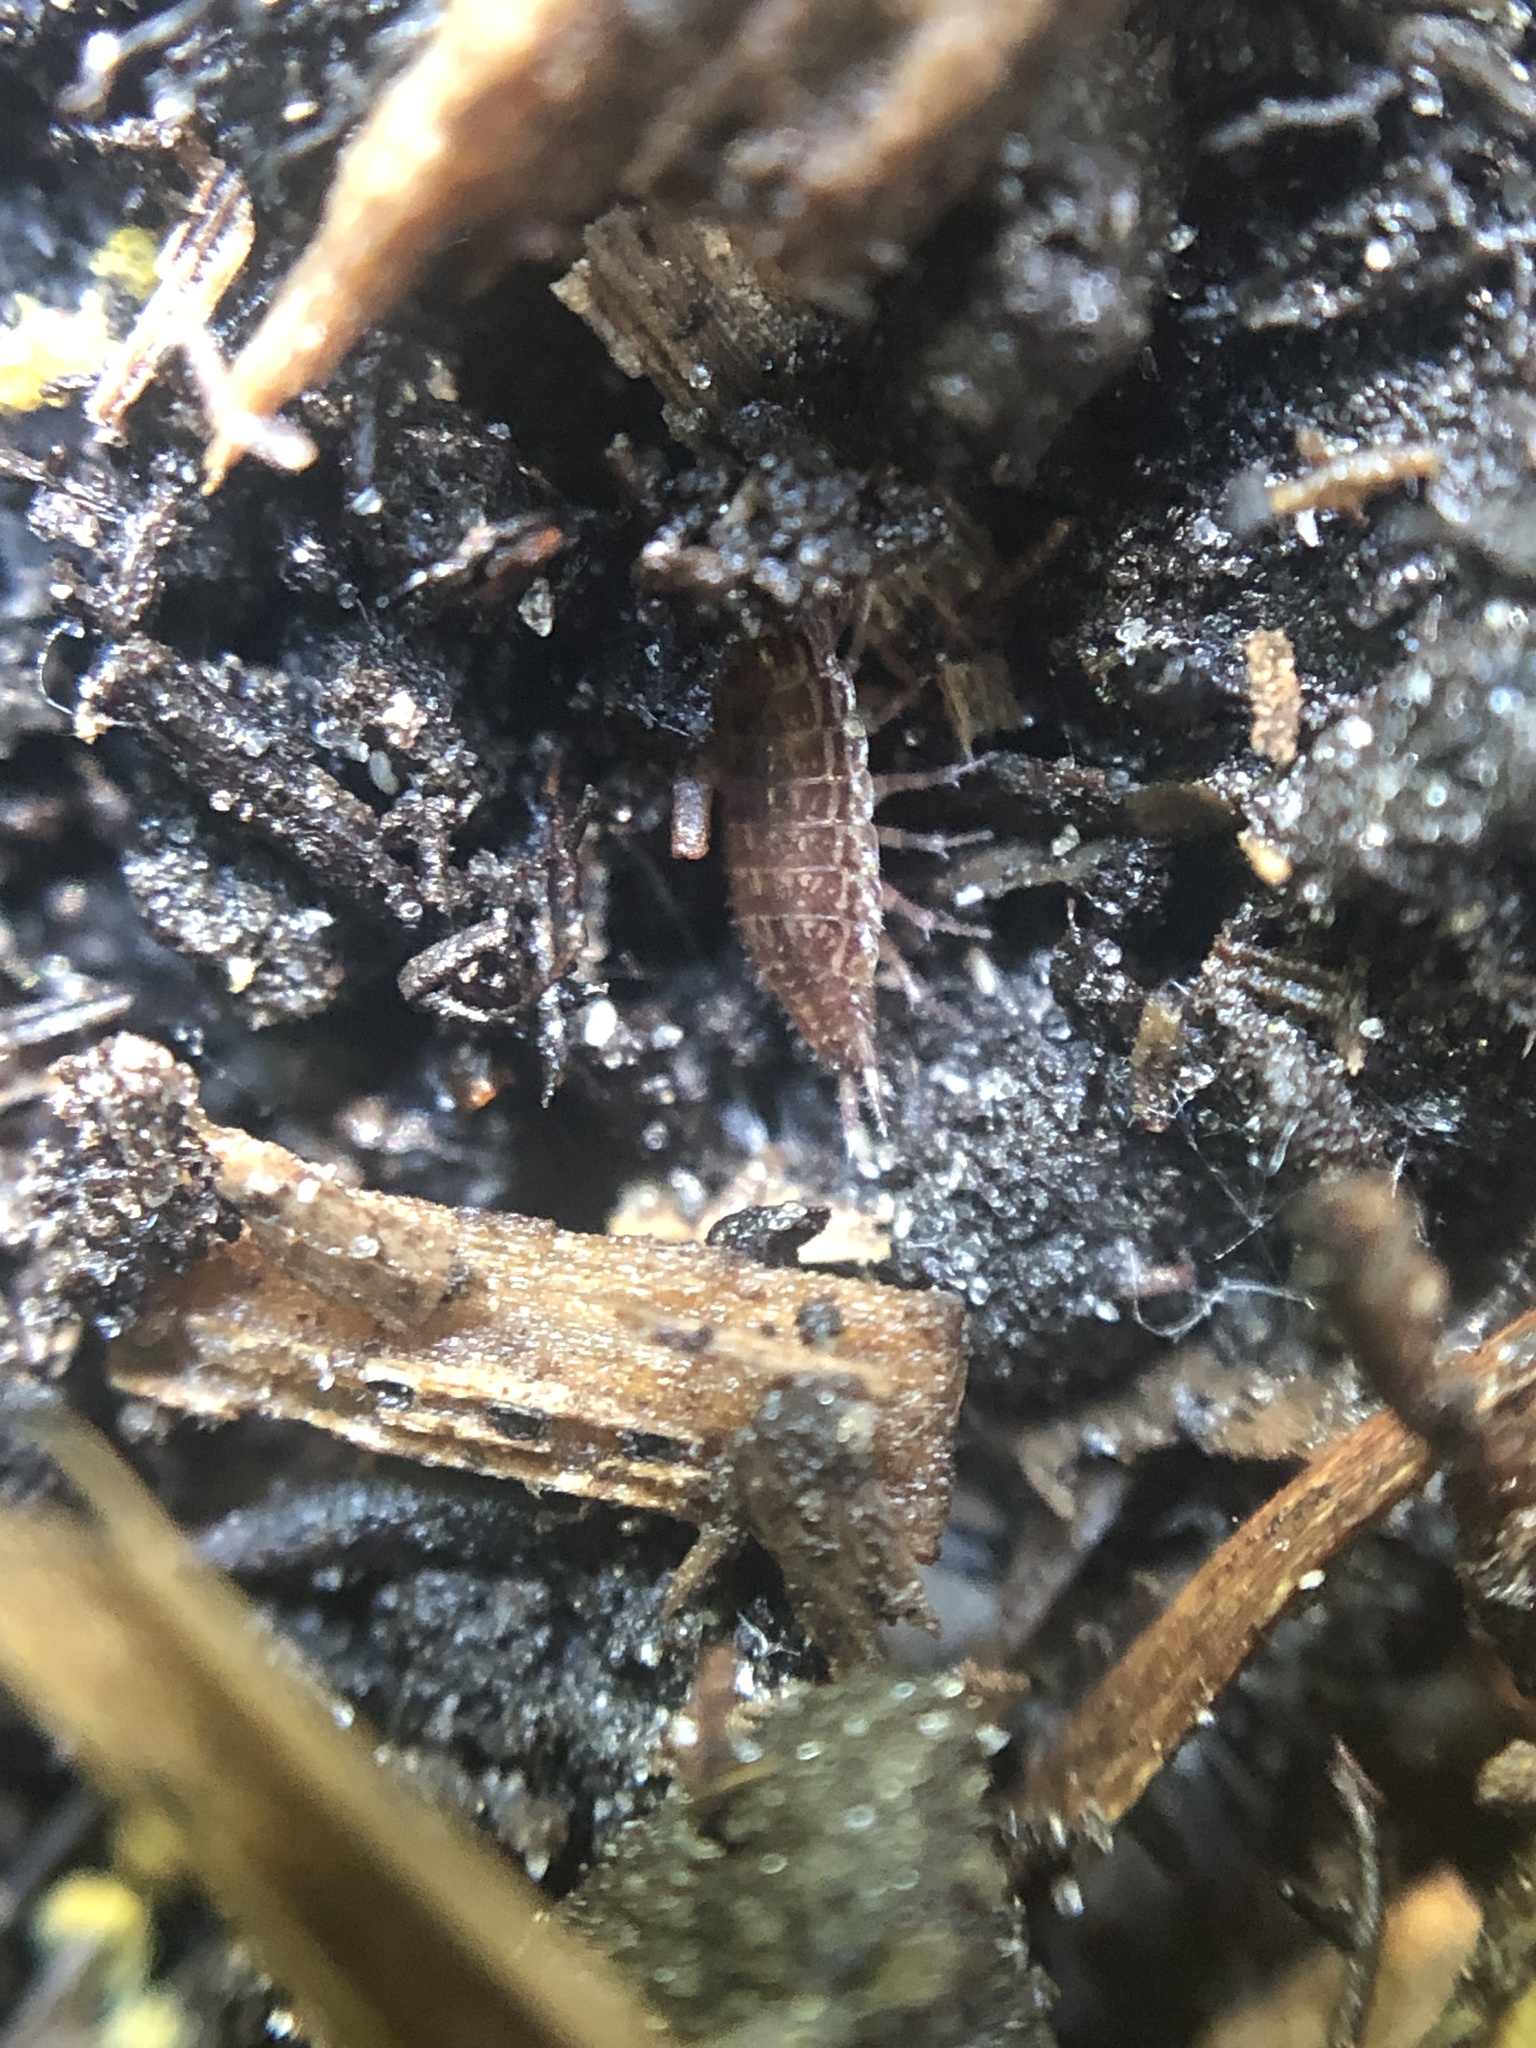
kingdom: Animalia
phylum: Arthropoda
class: Malacostraca
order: Isopoda
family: Philosciidae
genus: Atlantoscia
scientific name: Atlantoscia floridana
